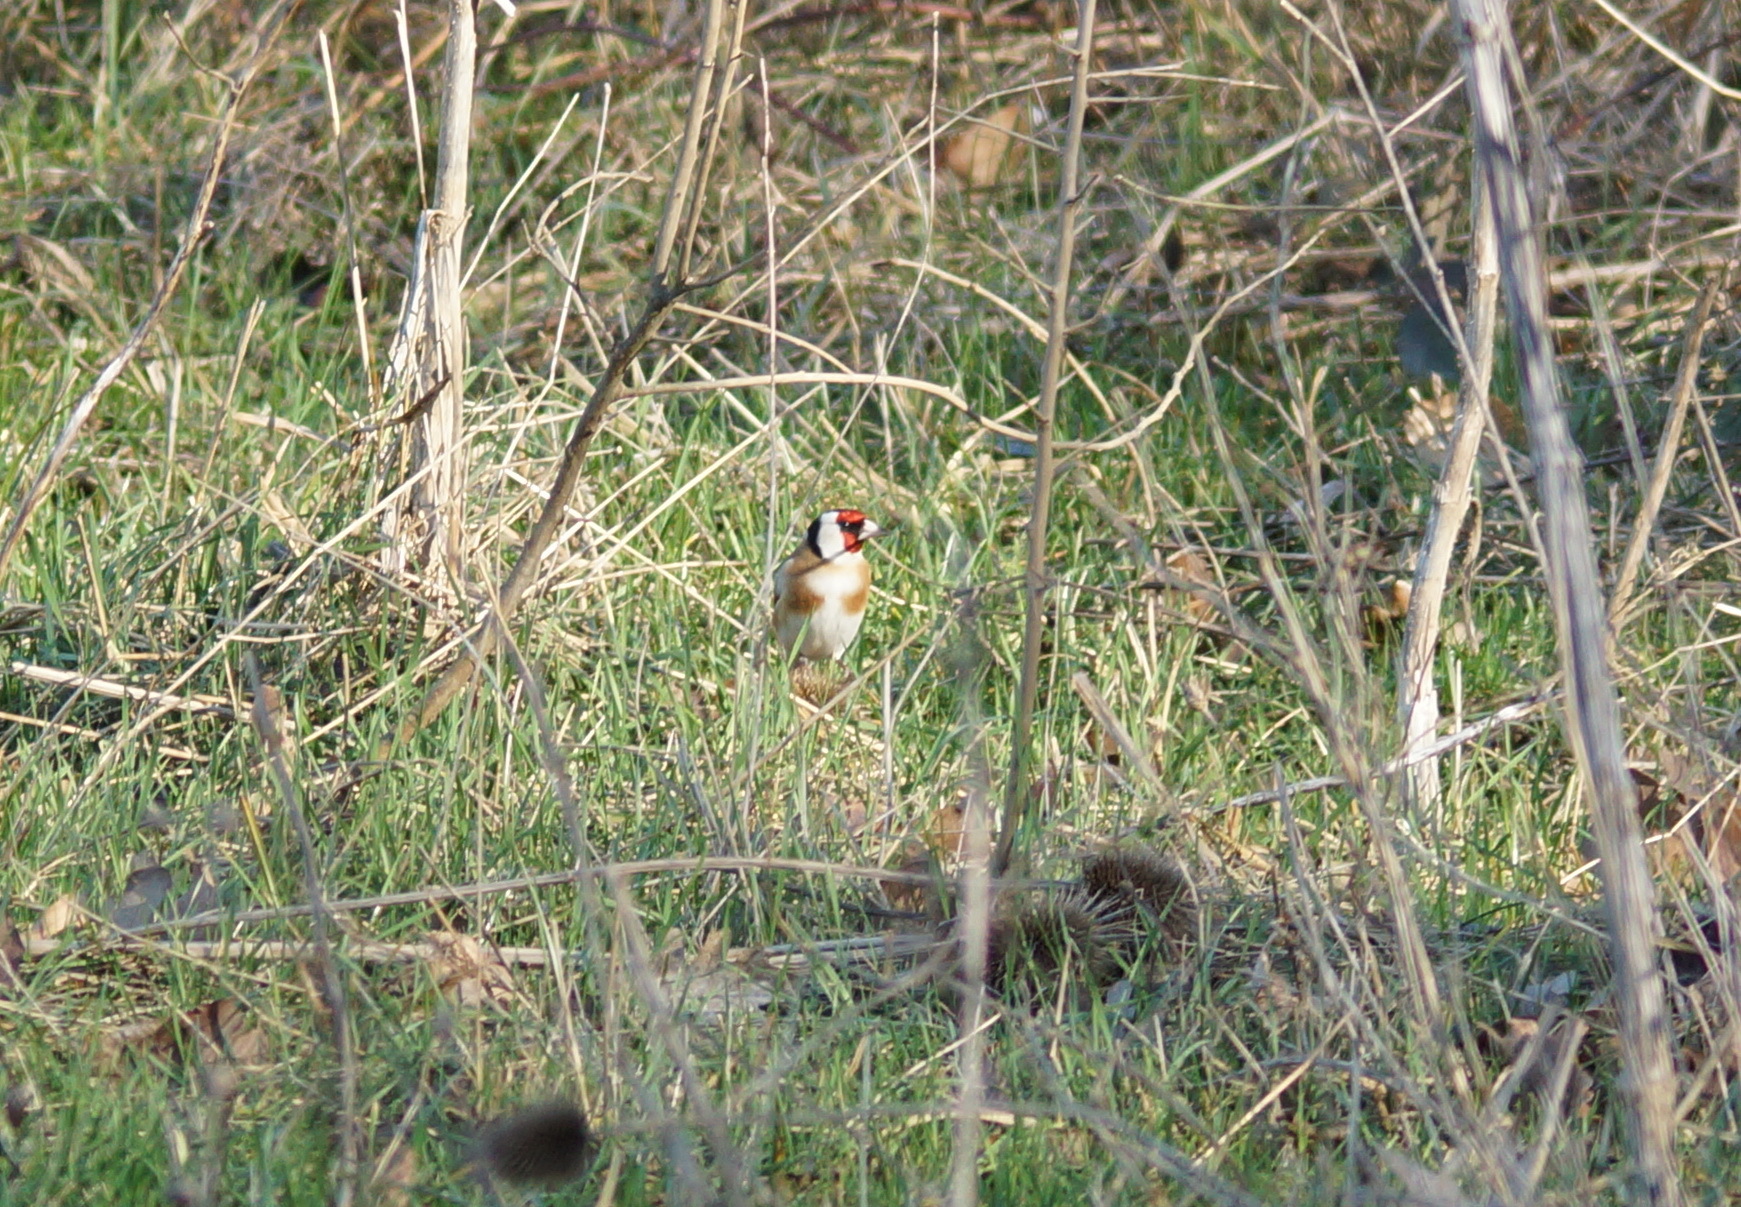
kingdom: Animalia
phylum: Chordata
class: Aves
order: Passeriformes
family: Fringillidae
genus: Carduelis
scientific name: Carduelis carduelis
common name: European goldfinch
